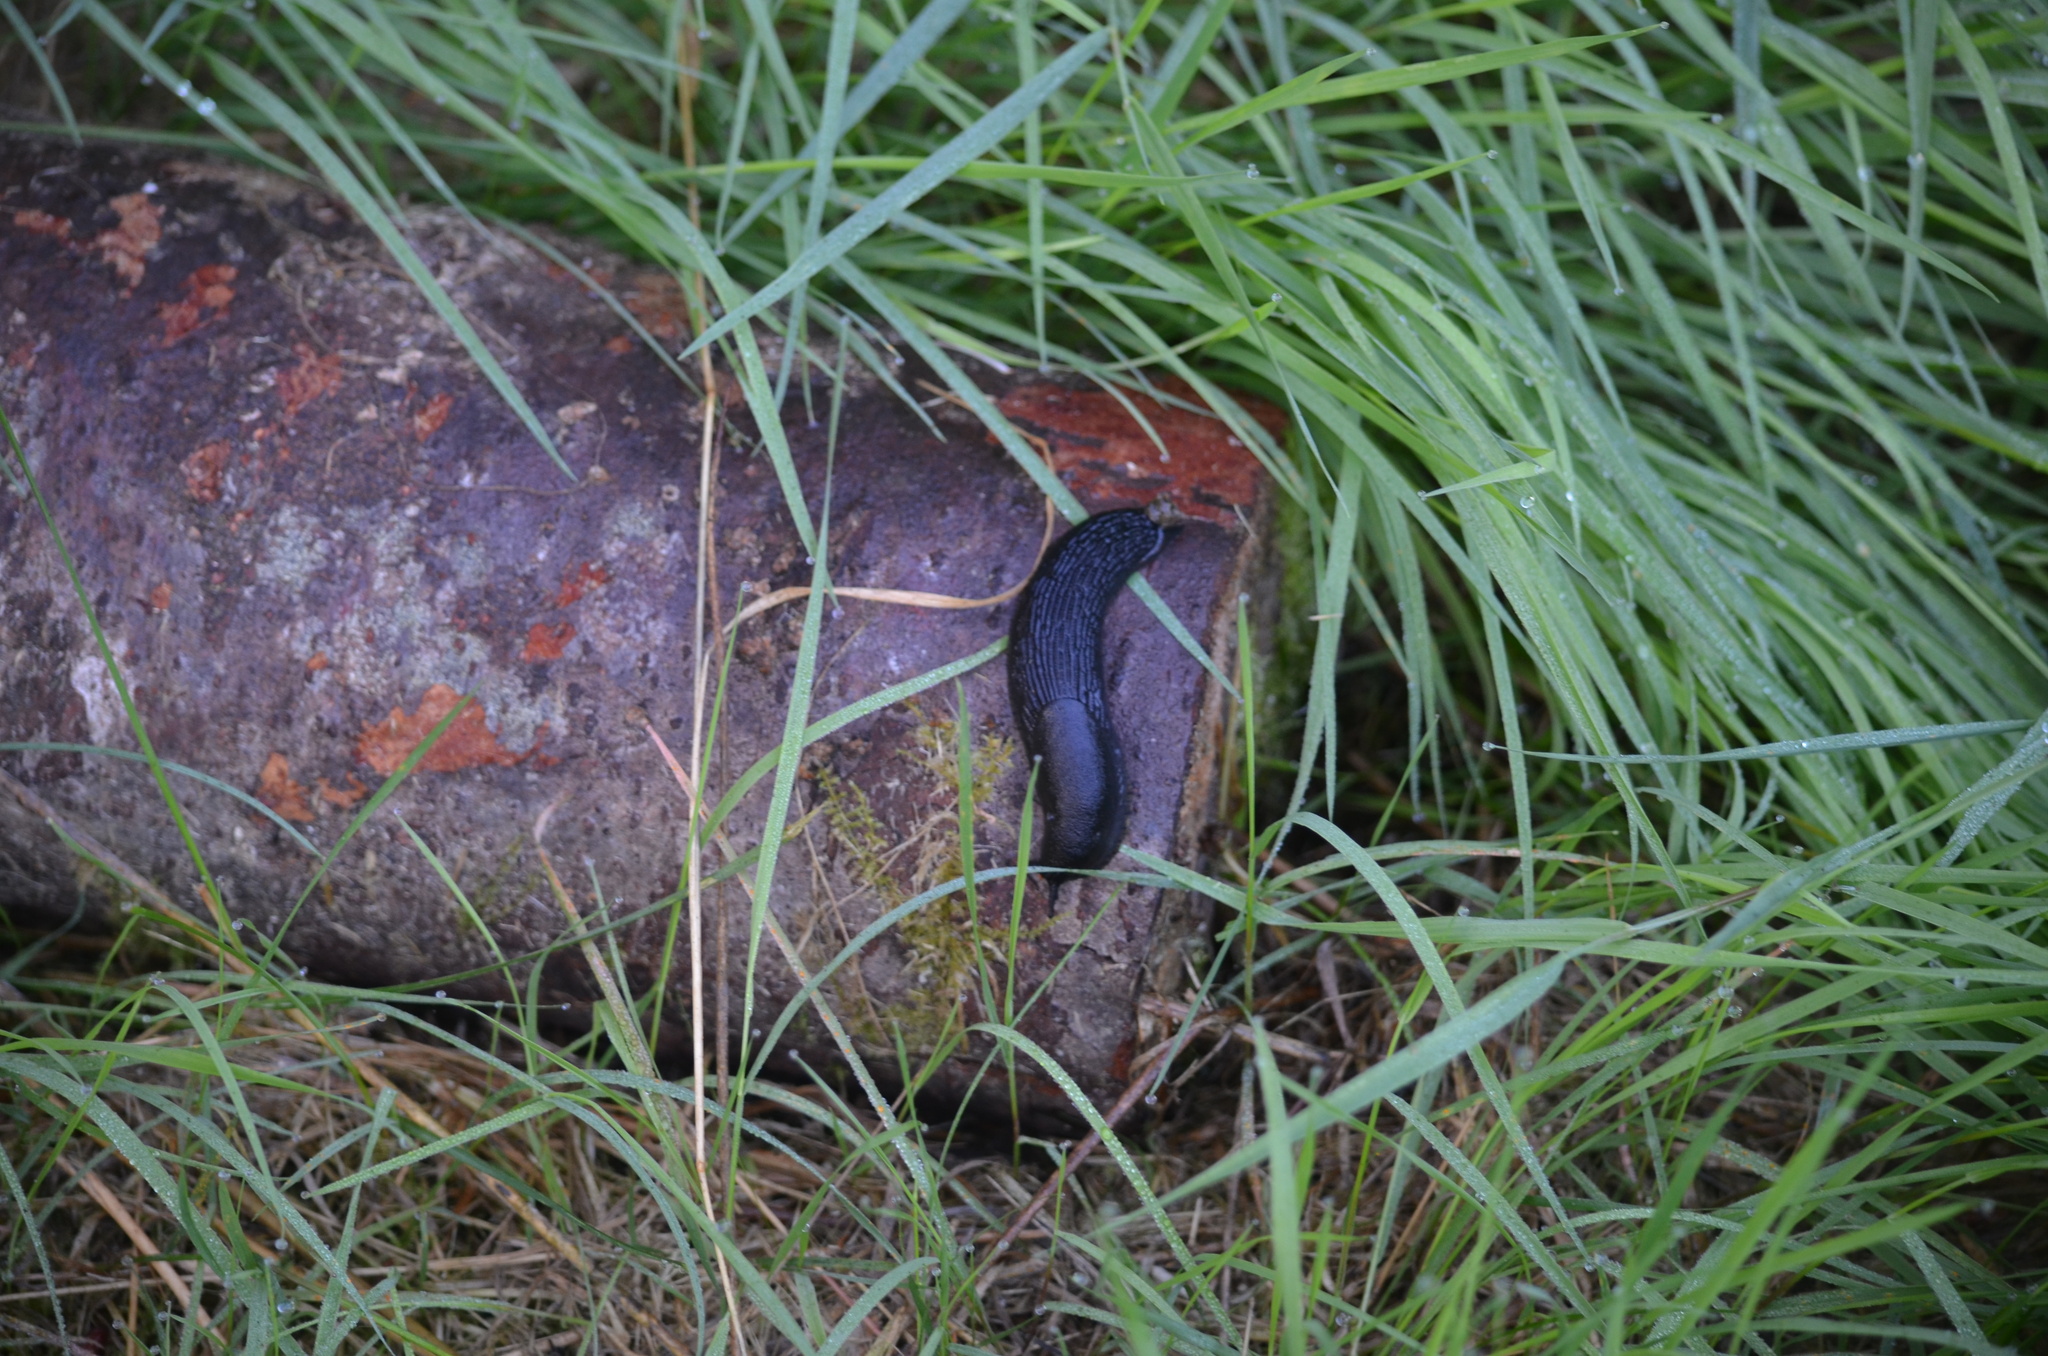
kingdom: Animalia
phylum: Mollusca
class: Gastropoda
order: Stylommatophora
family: Arionidae
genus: Arion
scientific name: Arion
